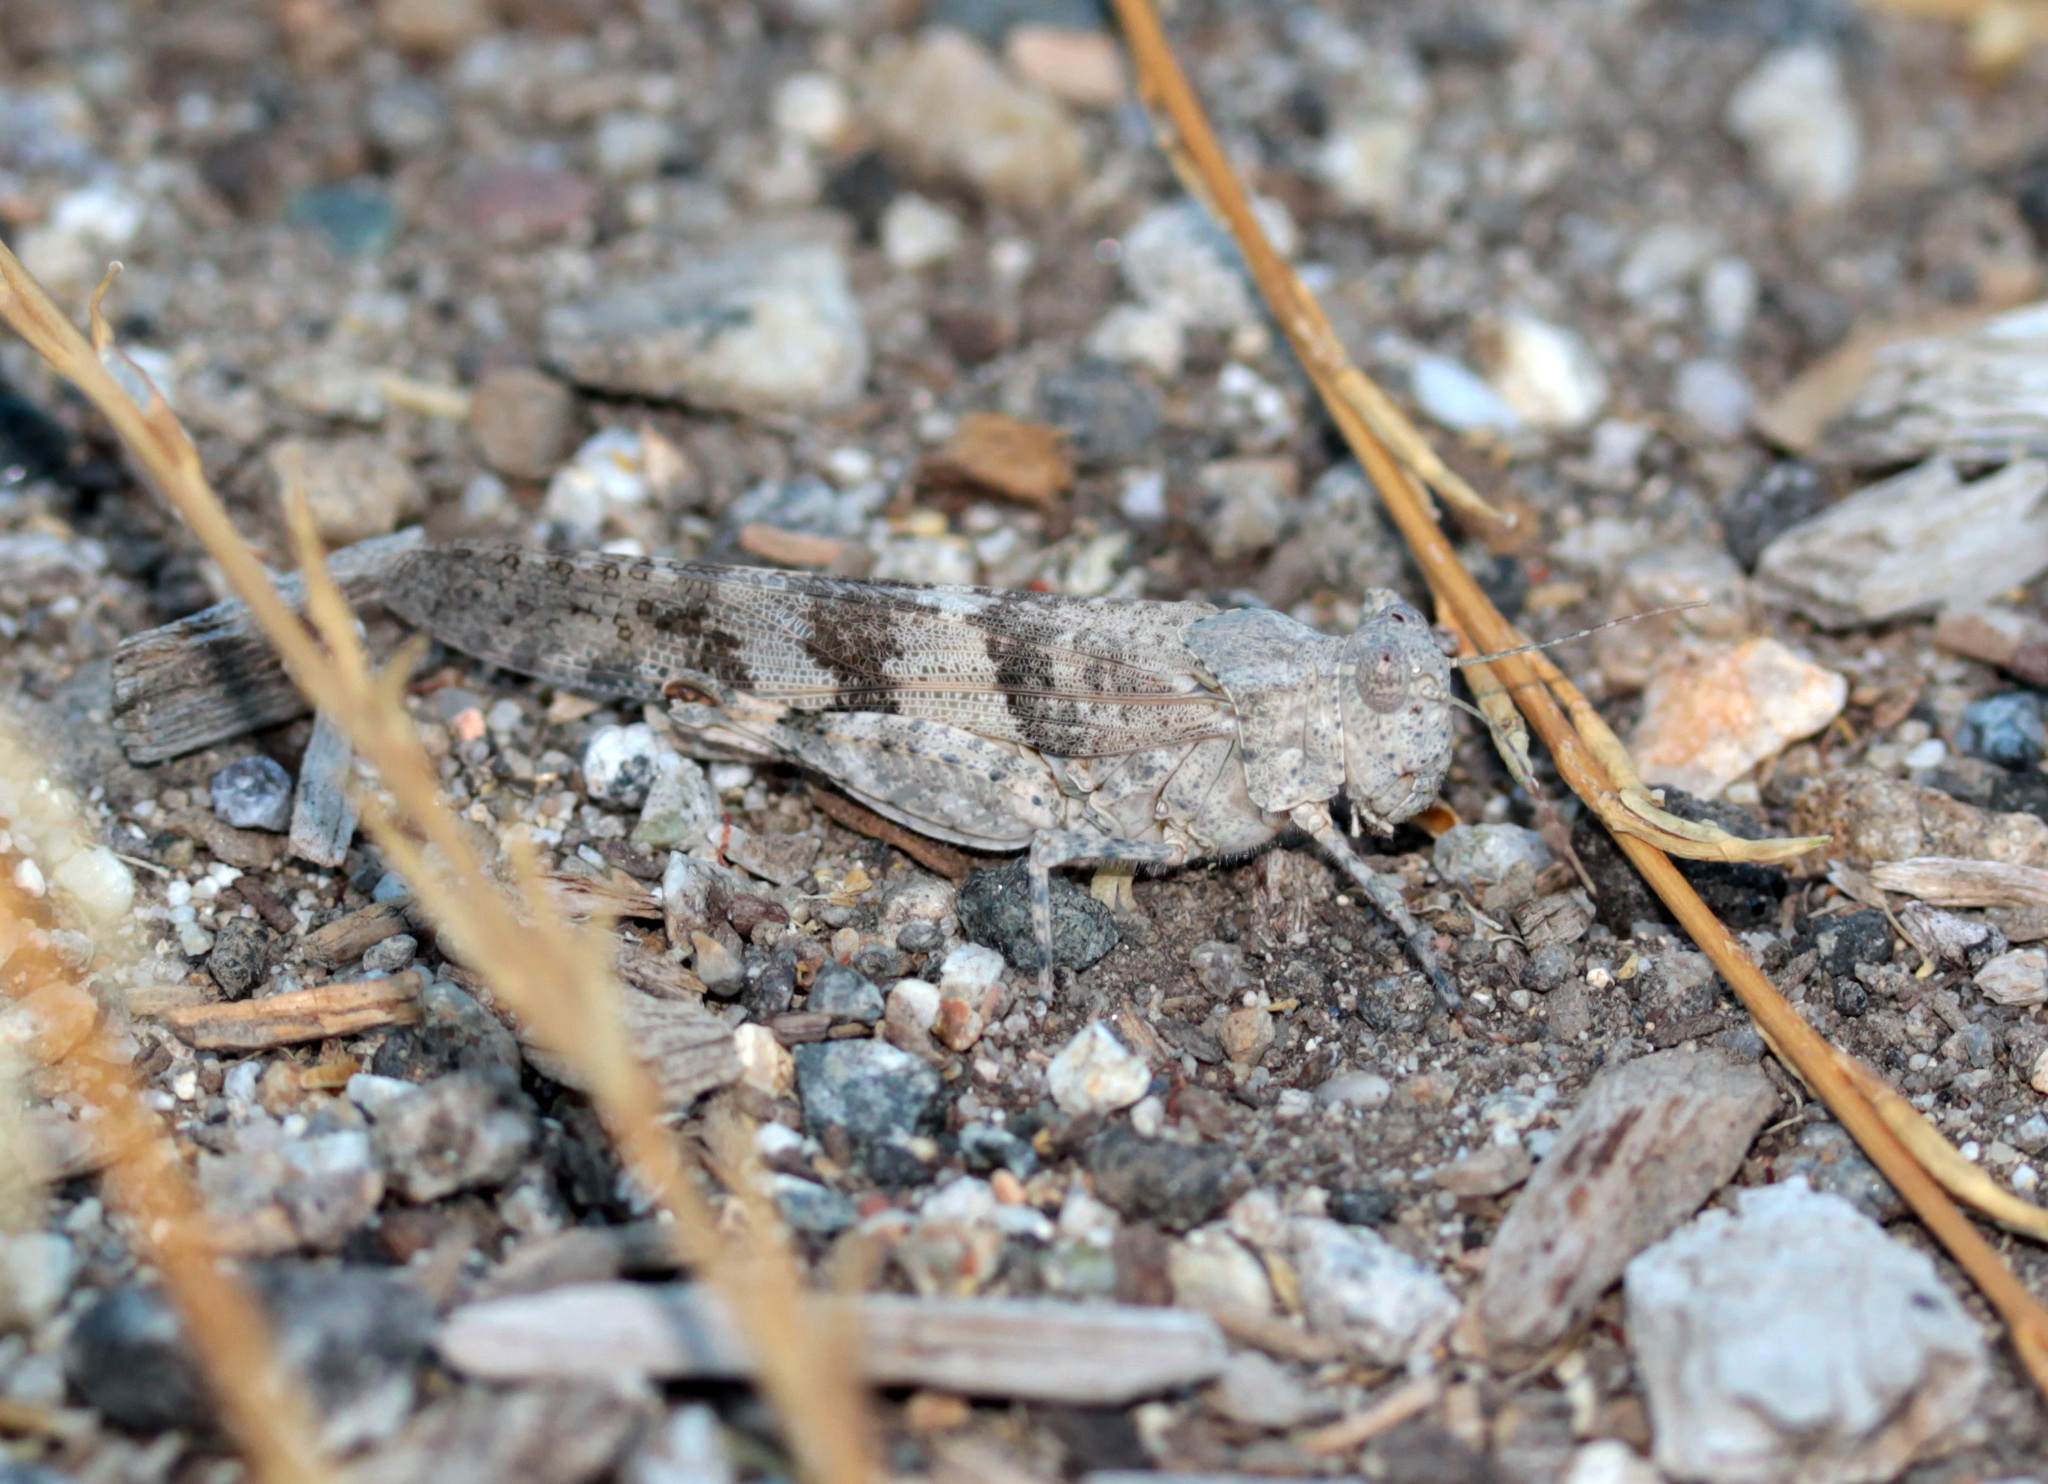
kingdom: Animalia
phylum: Arthropoda
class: Insecta
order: Orthoptera
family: Acrididae
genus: Trimerotropis
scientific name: Trimerotropis pallidipennis
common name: Pallid-winged grasshopper
